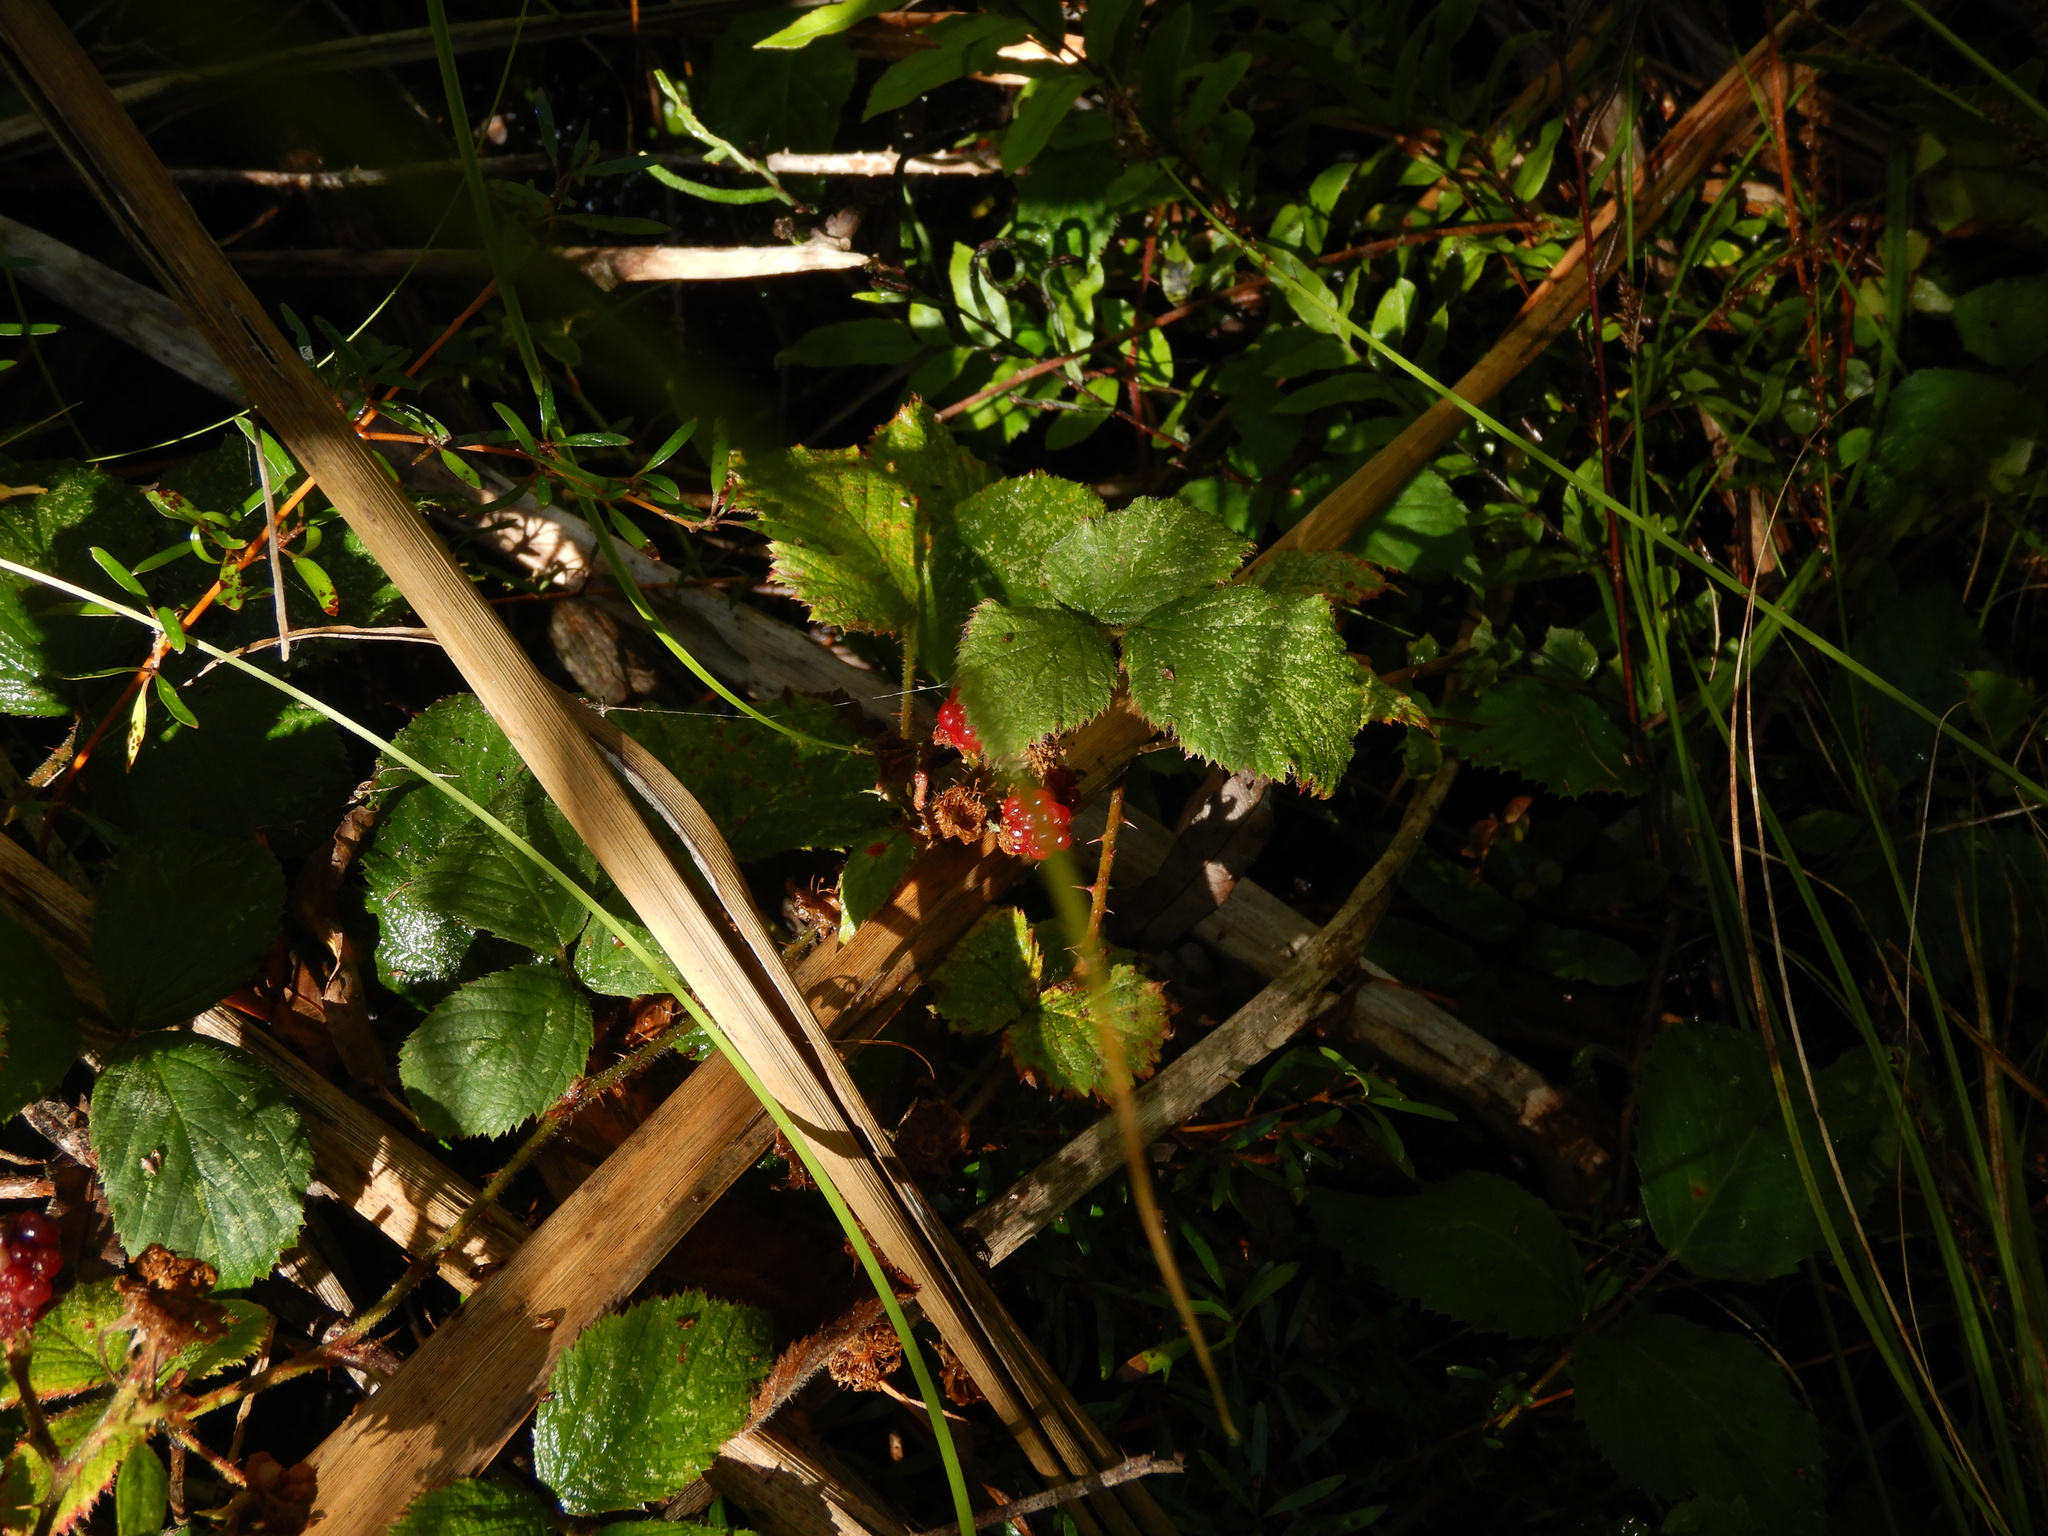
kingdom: Plantae
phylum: Tracheophyta
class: Magnoliopsida
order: Rosales
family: Rosaceae
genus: Rubus
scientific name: Rubus fruticosus
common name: Blackberry, bramble
